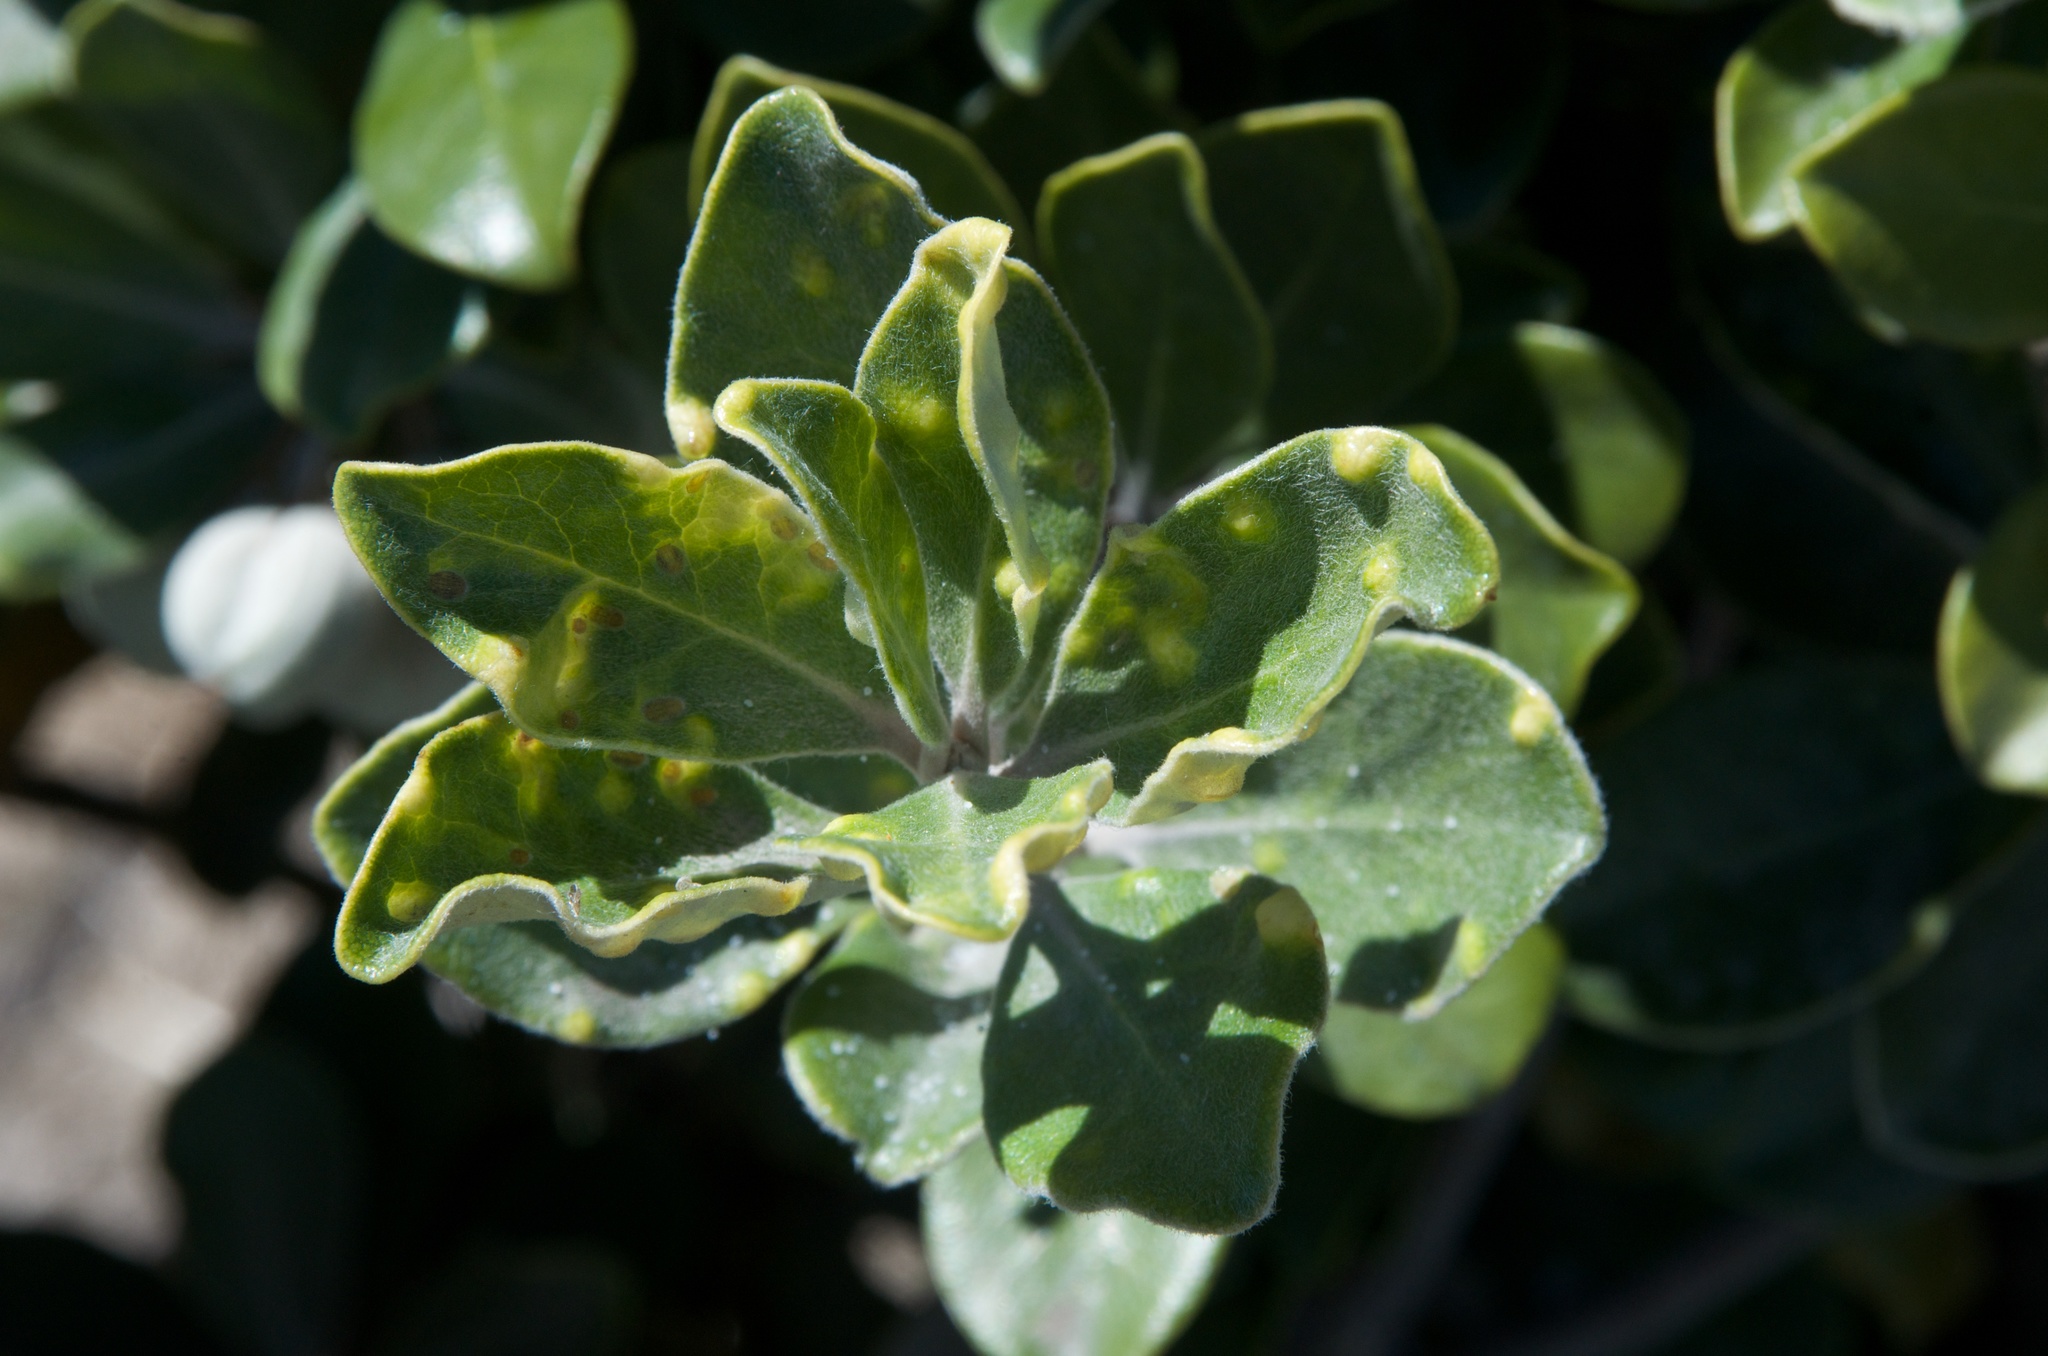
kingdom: Animalia
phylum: Arthropoda
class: Insecta
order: Hemiptera
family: Triozidae
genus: Powellia
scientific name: Powellia vitreoradiata
